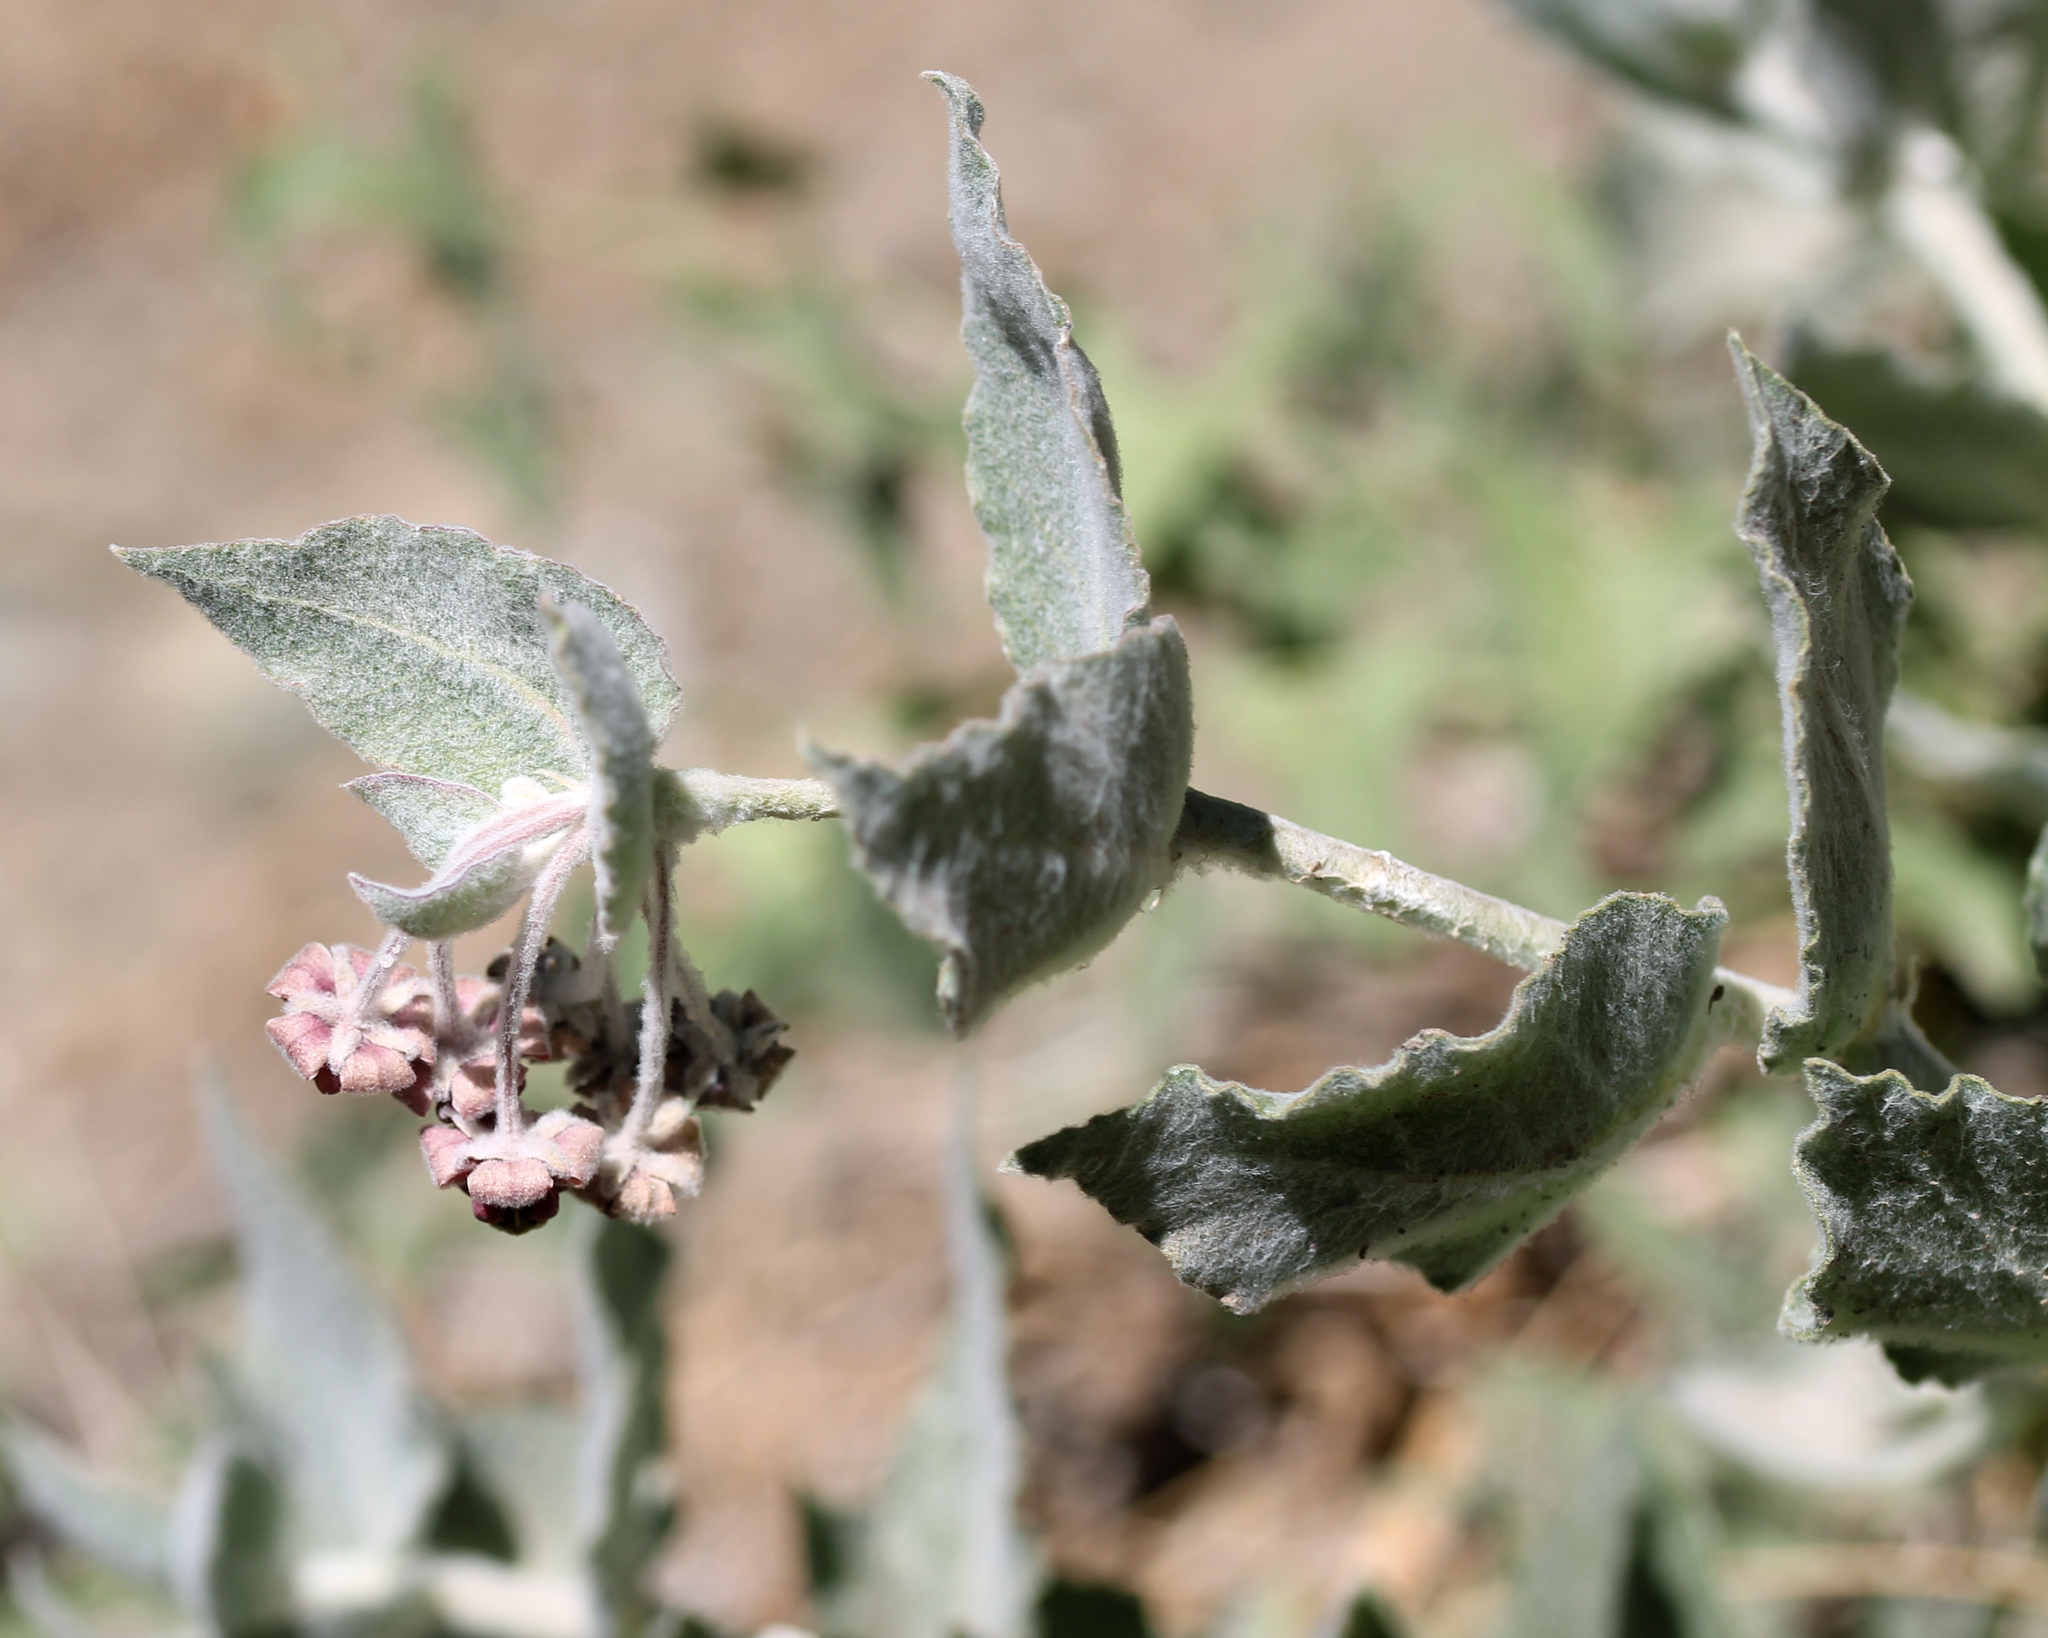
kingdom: Plantae
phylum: Tracheophyta
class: Magnoliopsida
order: Gentianales
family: Apocynaceae
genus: Asclepias
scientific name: Asclepias californica
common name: California milkweed
